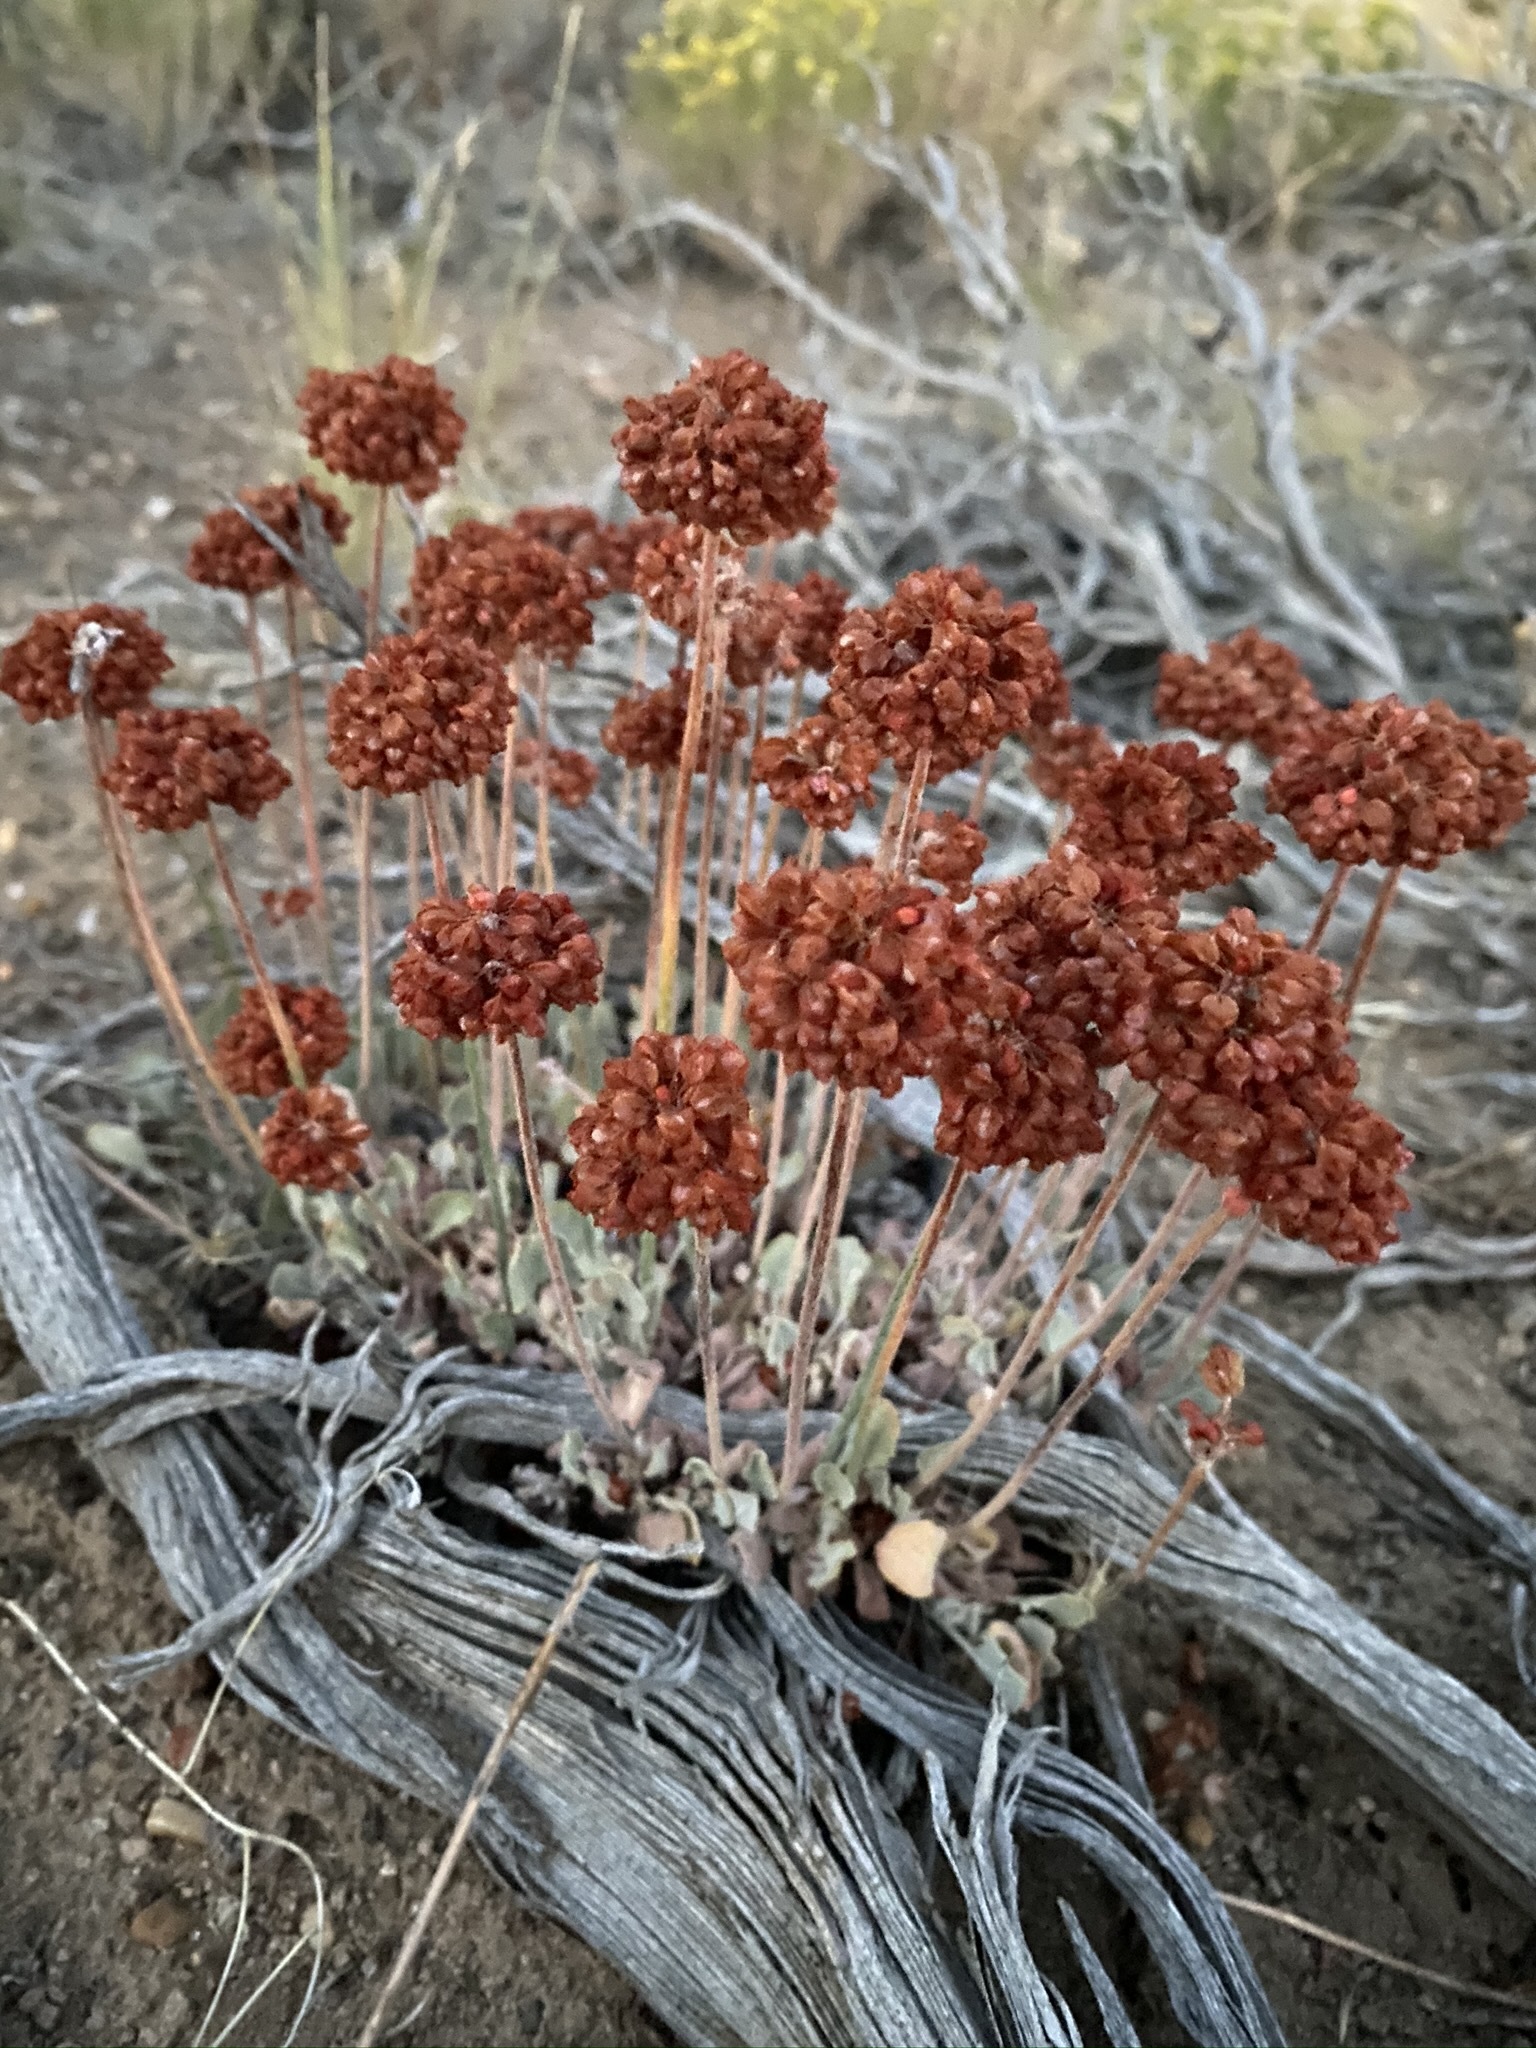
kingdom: Plantae
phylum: Tracheophyta
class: Magnoliopsida
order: Caryophyllales
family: Polygonaceae
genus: Eriogonum
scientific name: Eriogonum ovalifolium
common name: Cushion buckwheat
